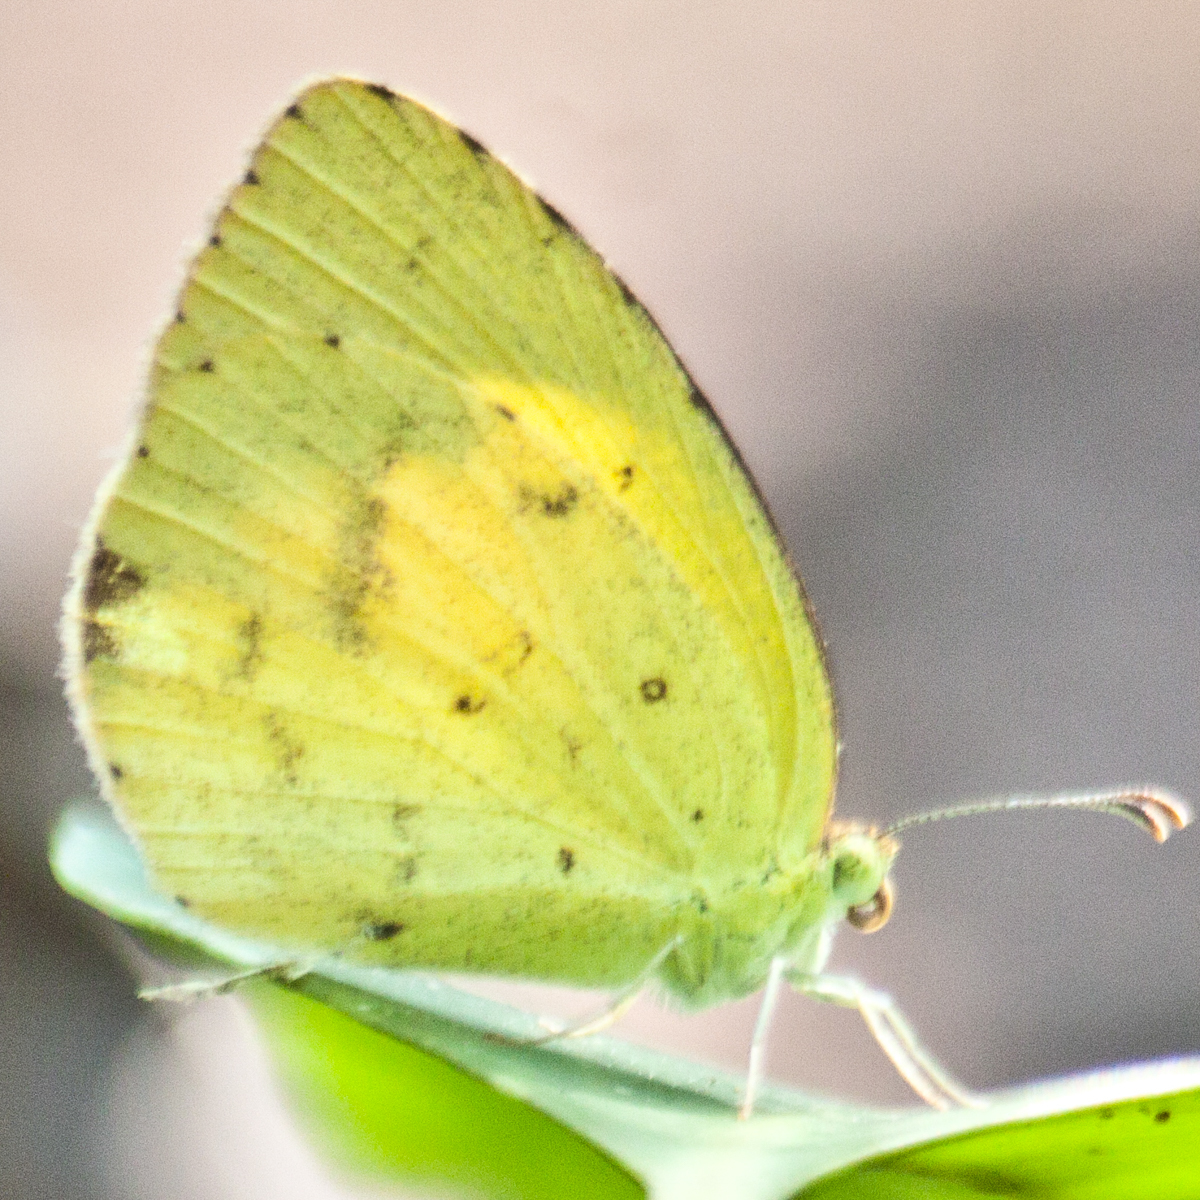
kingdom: Animalia
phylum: Arthropoda
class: Insecta
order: Lepidoptera
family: Pieridae
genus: Eurema
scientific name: Eurema brigitta
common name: Small grass yellow
